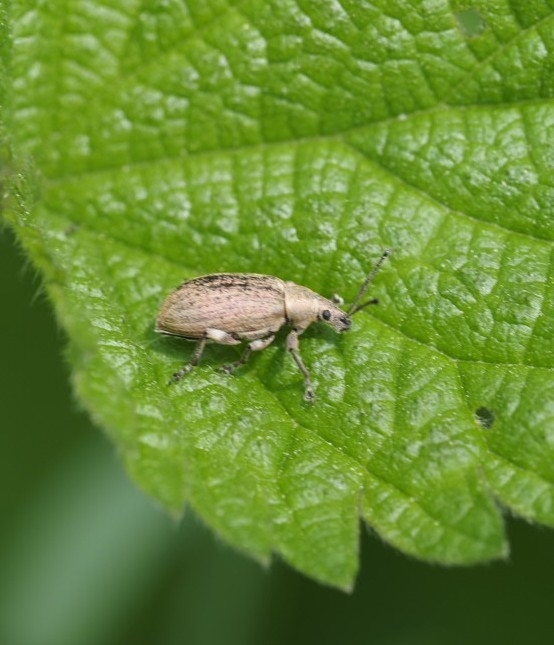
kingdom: Animalia
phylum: Arthropoda
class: Insecta
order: Coleoptera
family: Curculionidae
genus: Phyllobius
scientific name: Phyllobius pyri
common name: Common leaf weevil
